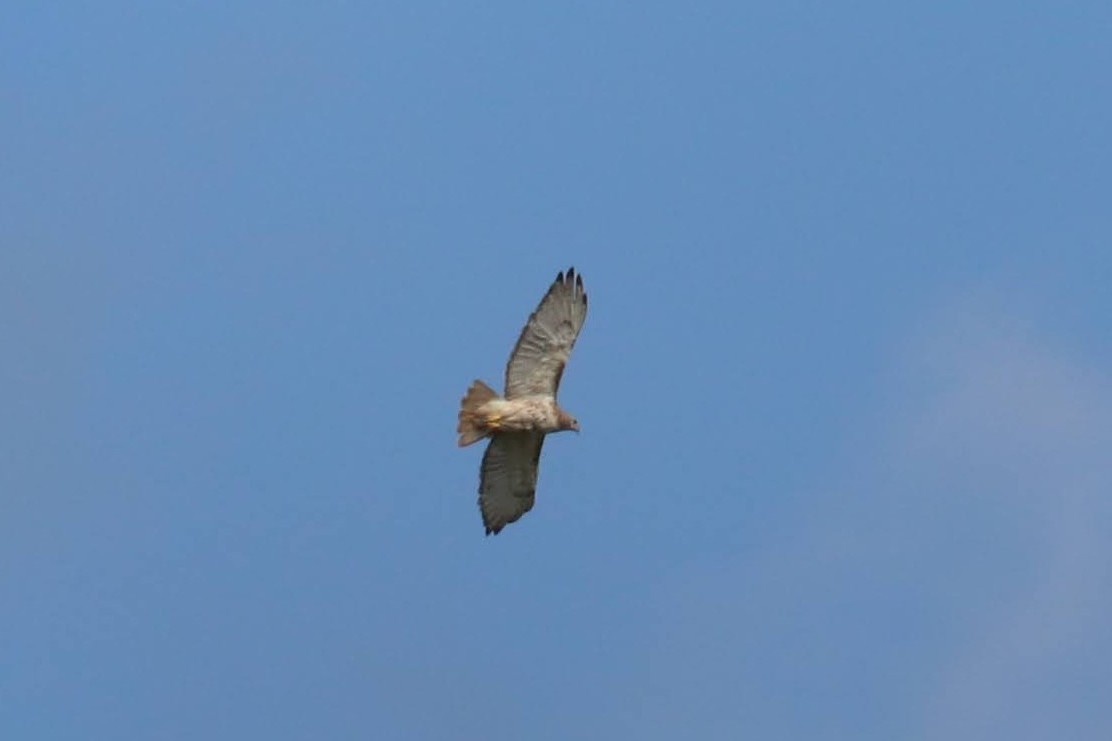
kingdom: Animalia
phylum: Chordata
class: Aves
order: Accipitriformes
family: Accipitridae
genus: Buteo
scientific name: Buteo jamaicensis
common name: Red-tailed hawk
